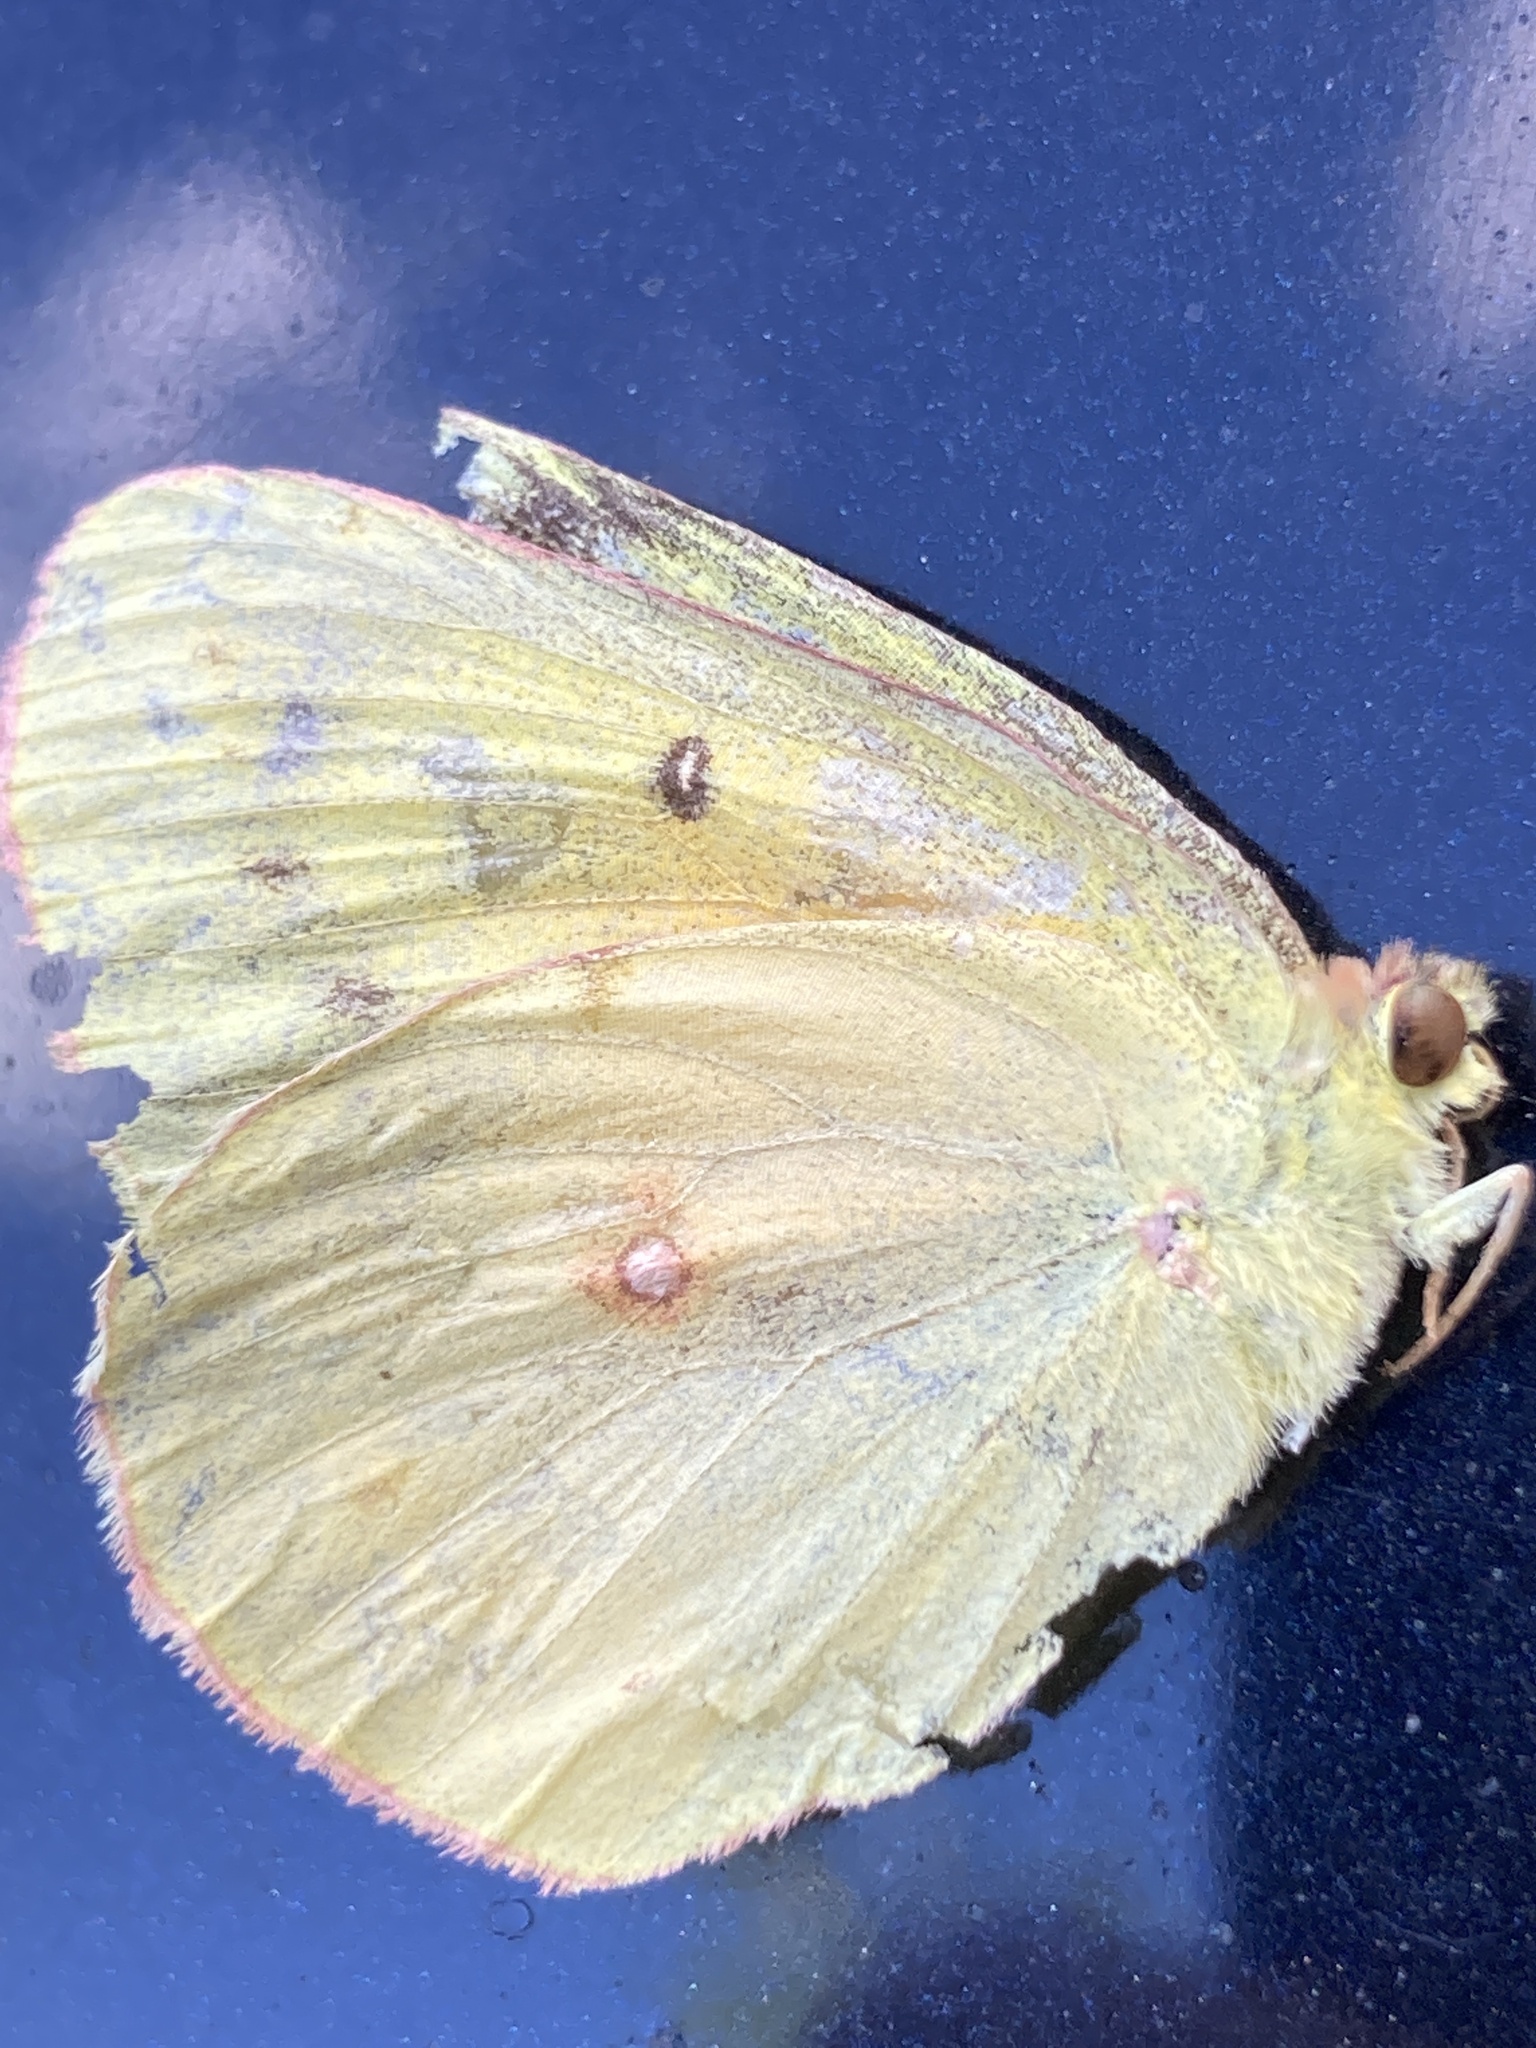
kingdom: Animalia
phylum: Arthropoda
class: Insecta
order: Lepidoptera
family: Pieridae
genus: Colias
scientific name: Colias eurytheme
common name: Alfalfa butterfly
